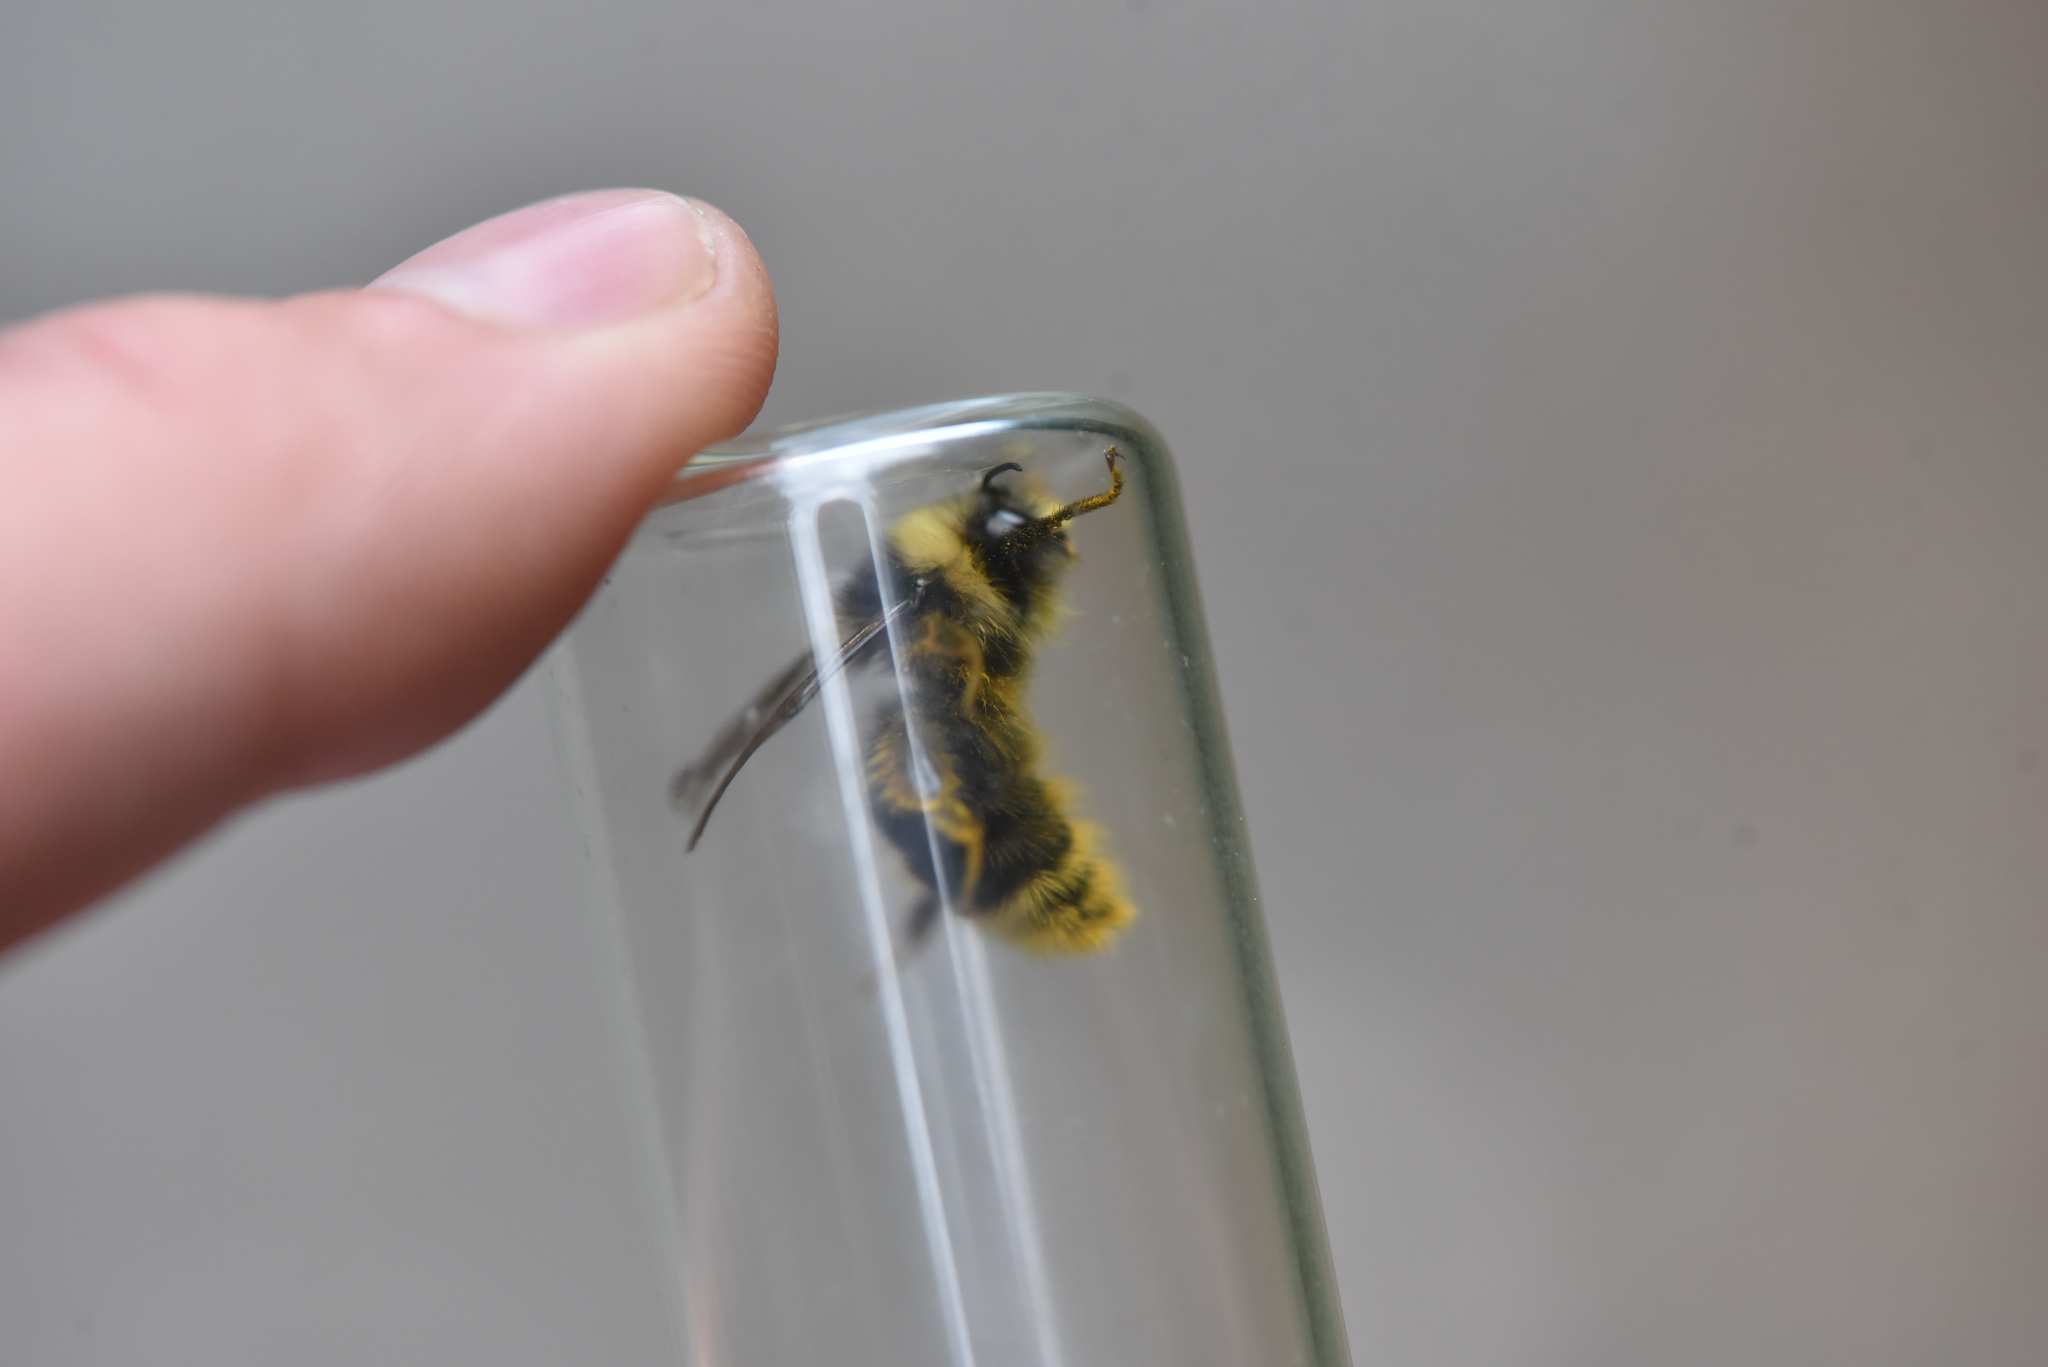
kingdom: Animalia
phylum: Arthropoda
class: Insecta
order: Hymenoptera
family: Apidae
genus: Bombus
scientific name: Bombus occidentalis
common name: Western bumble bee
